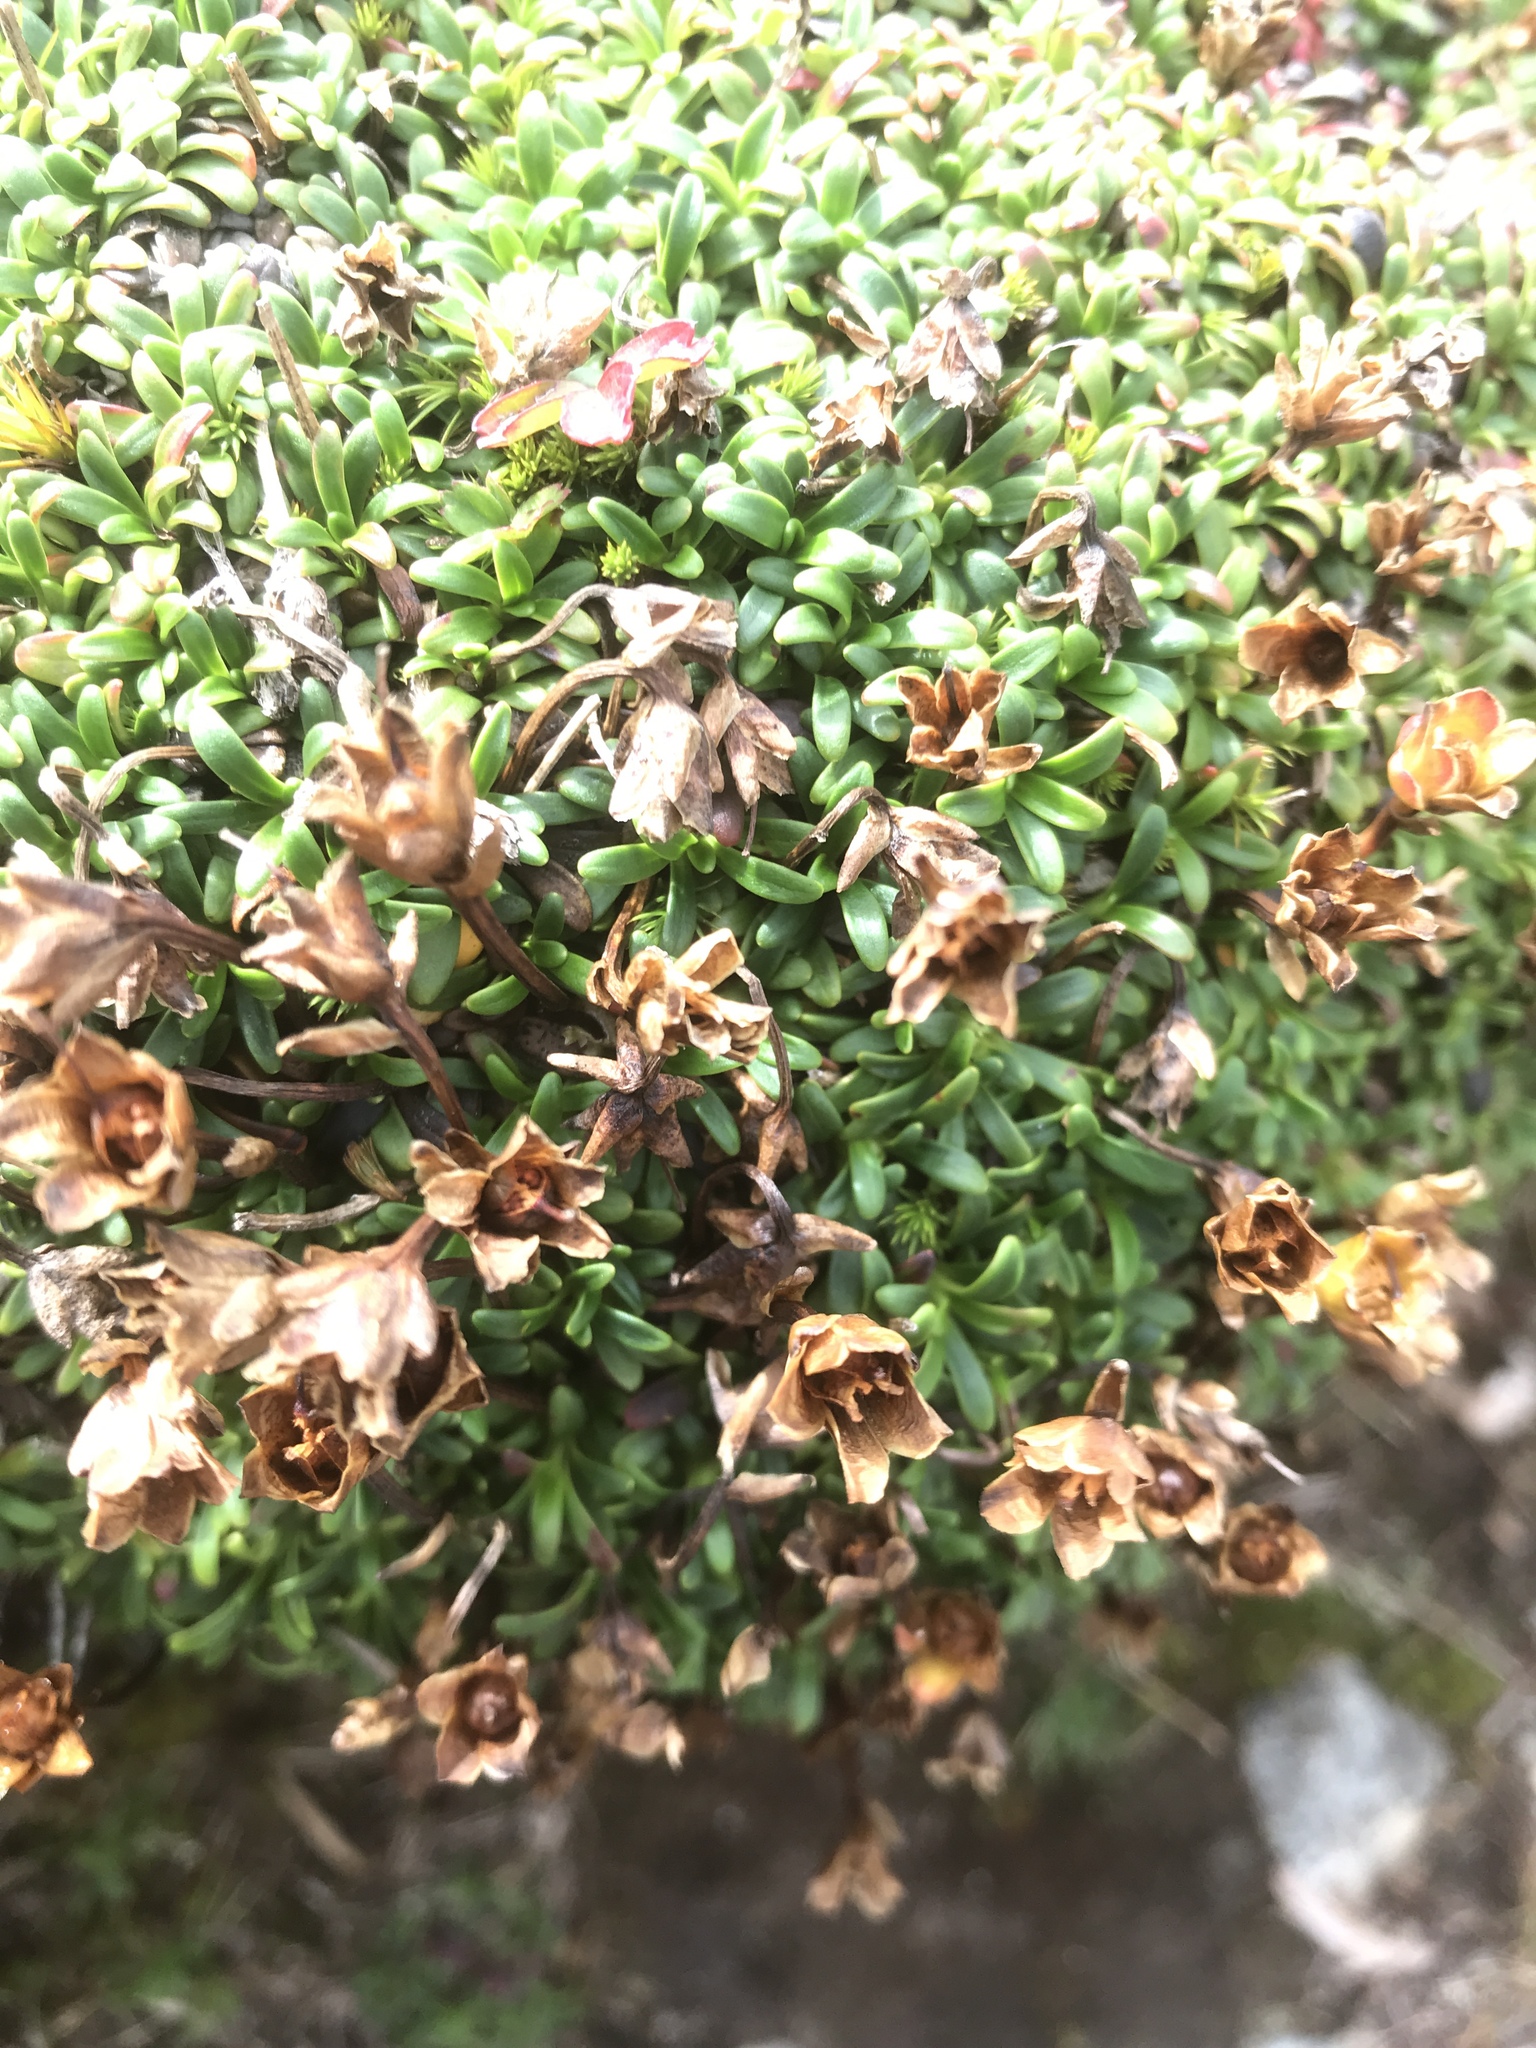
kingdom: Plantae
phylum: Tracheophyta
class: Magnoliopsida
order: Ericales
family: Diapensiaceae
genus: Diapensia
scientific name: Diapensia lapponica
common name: Diapensia
